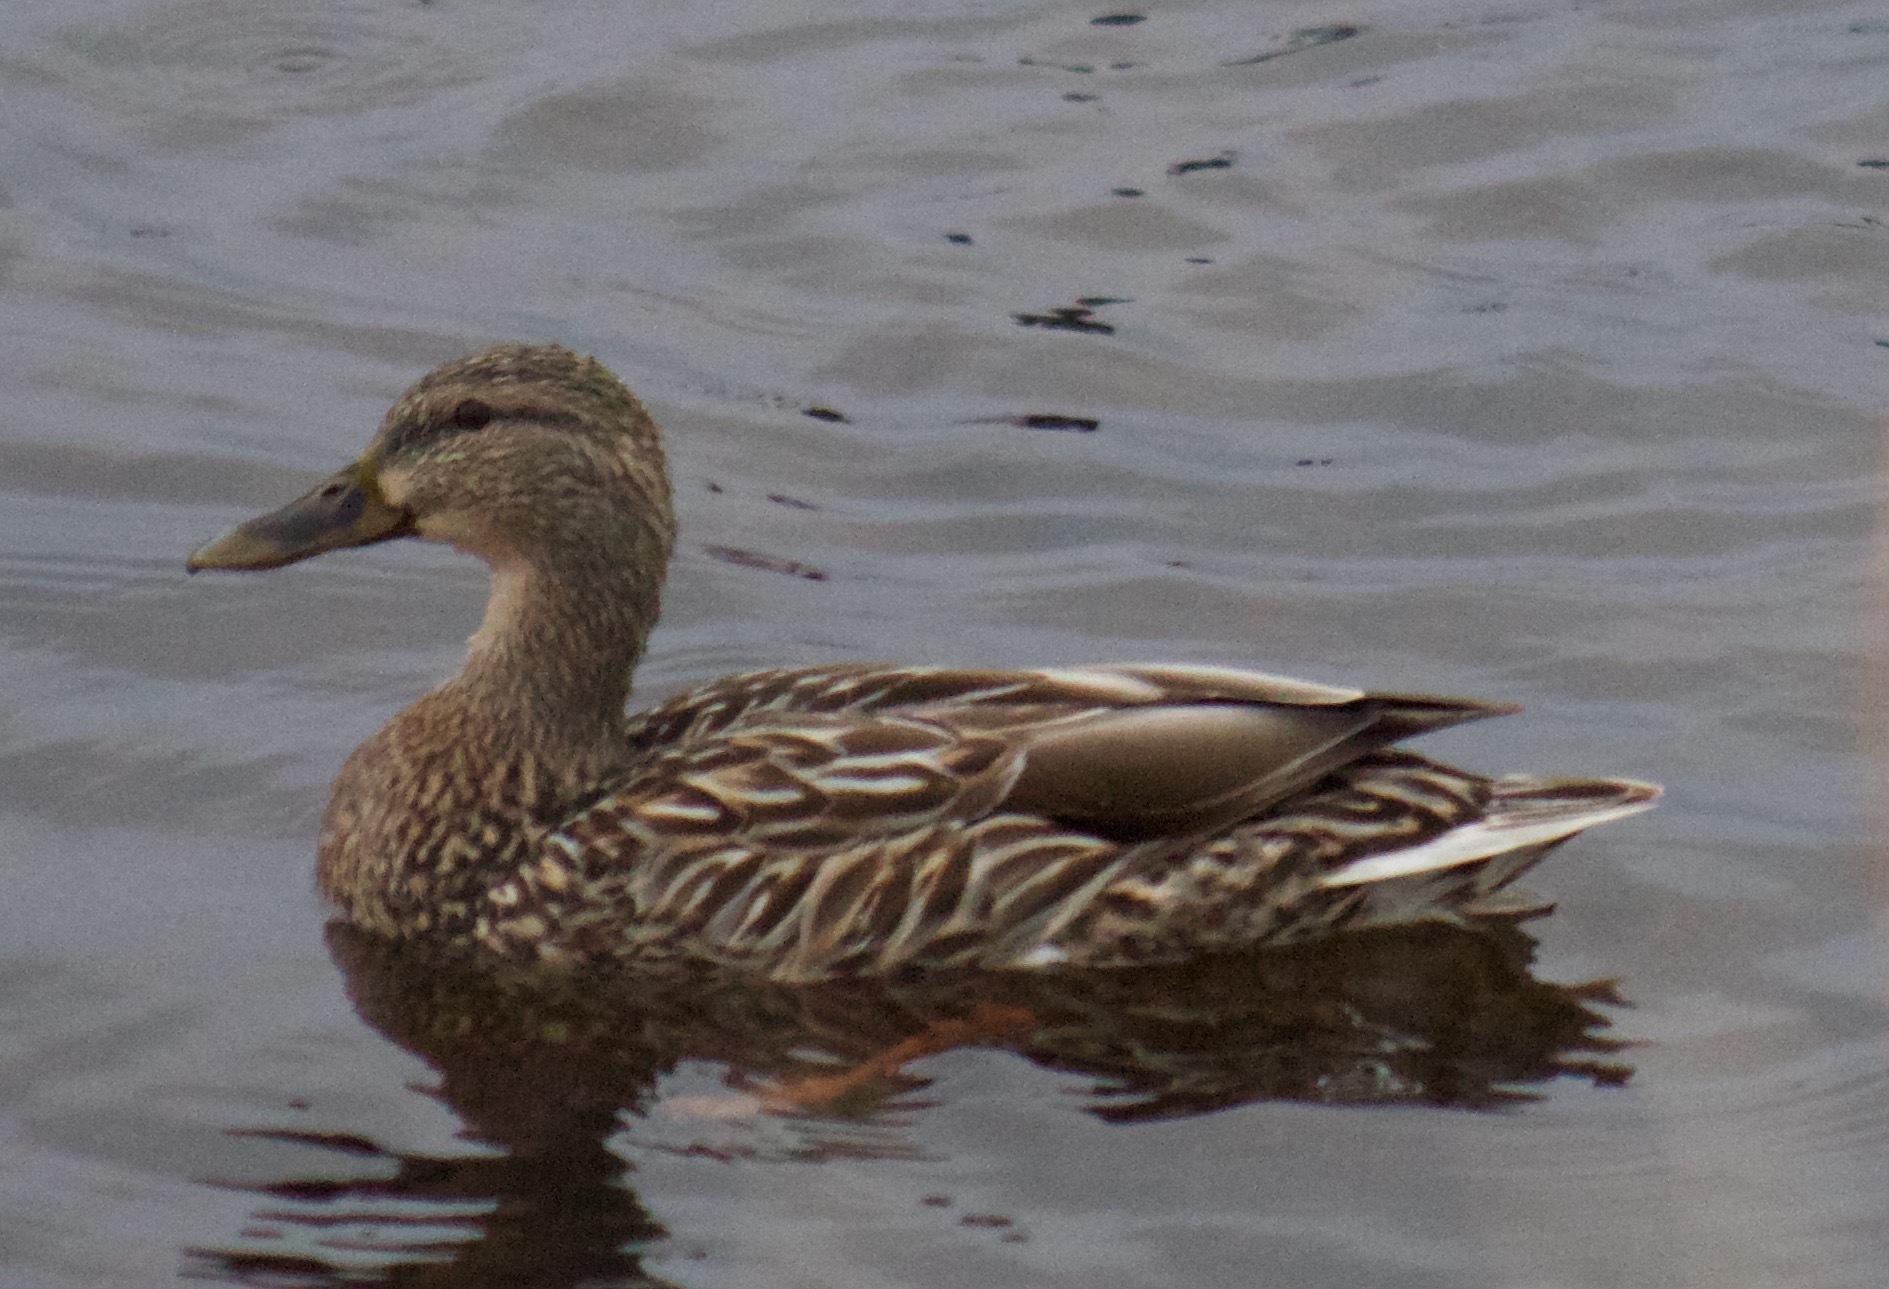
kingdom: Animalia
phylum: Chordata
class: Aves
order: Anseriformes
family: Anatidae
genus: Anas
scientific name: Anas platyrhynchos
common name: Mallard
